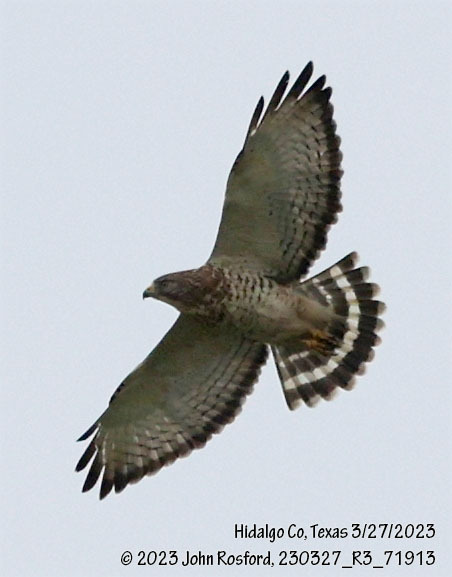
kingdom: Animalia
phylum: Chordata
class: Aves
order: Accipitriformes
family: Accipitridae
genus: Buteo
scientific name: Buteo platypterus
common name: Broad-winged hawk
